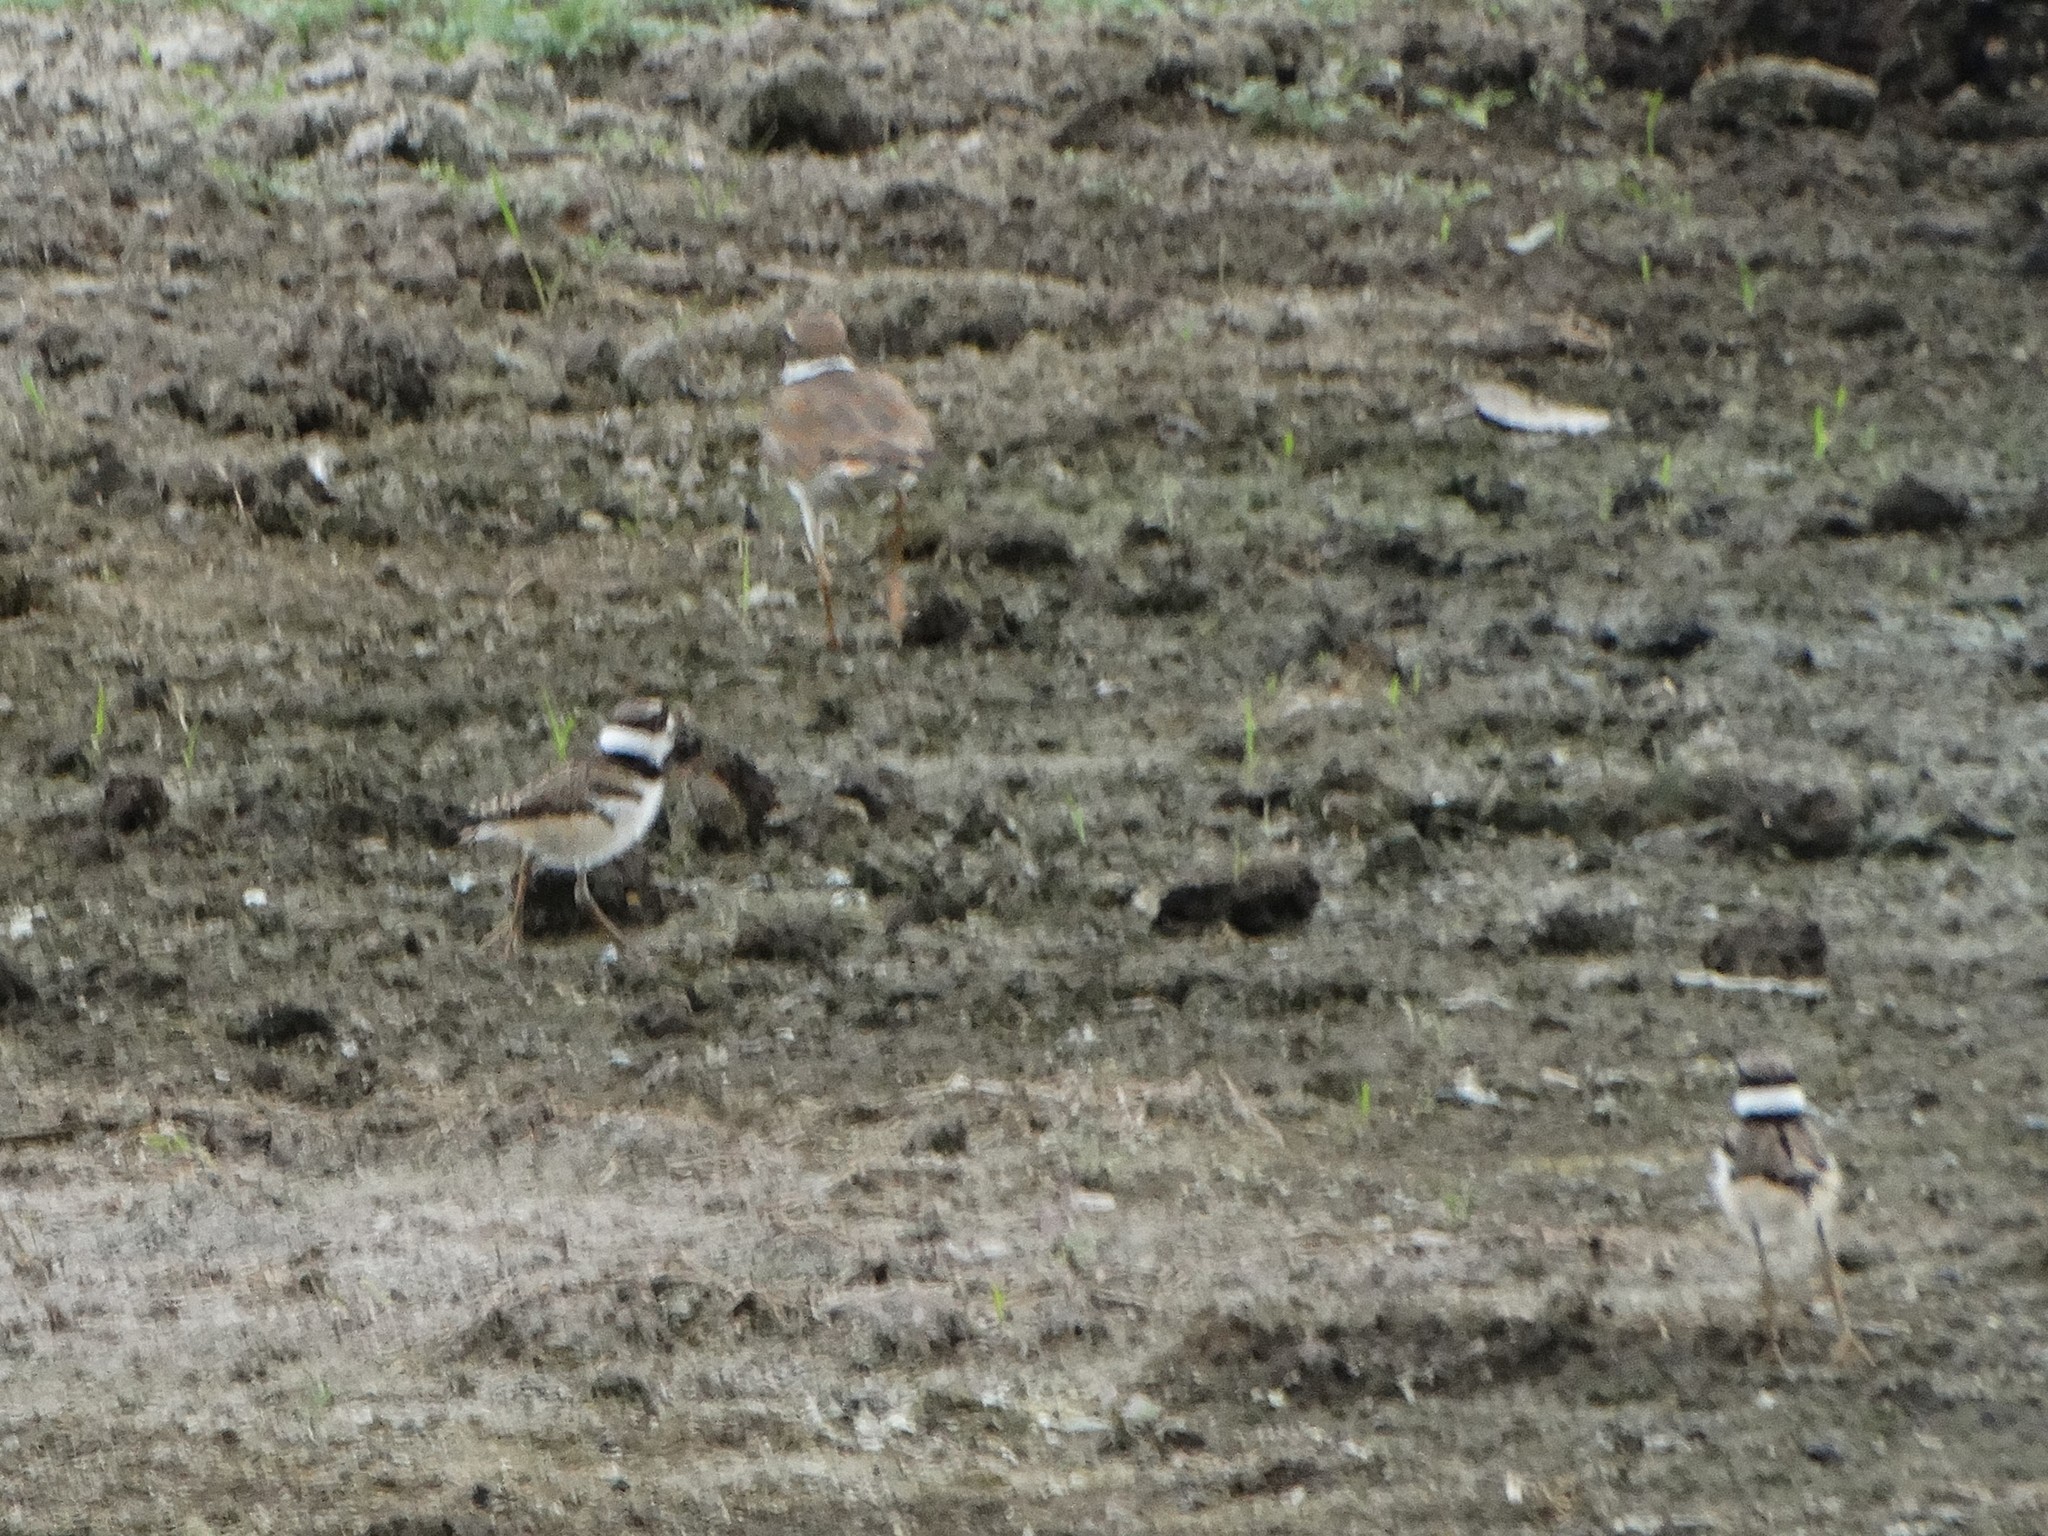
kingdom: Animalia
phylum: Chordata
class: Aves
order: Charadriiformes
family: Charadriidae
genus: Charadrius
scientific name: Charadrius vociferus
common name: Killdeer
